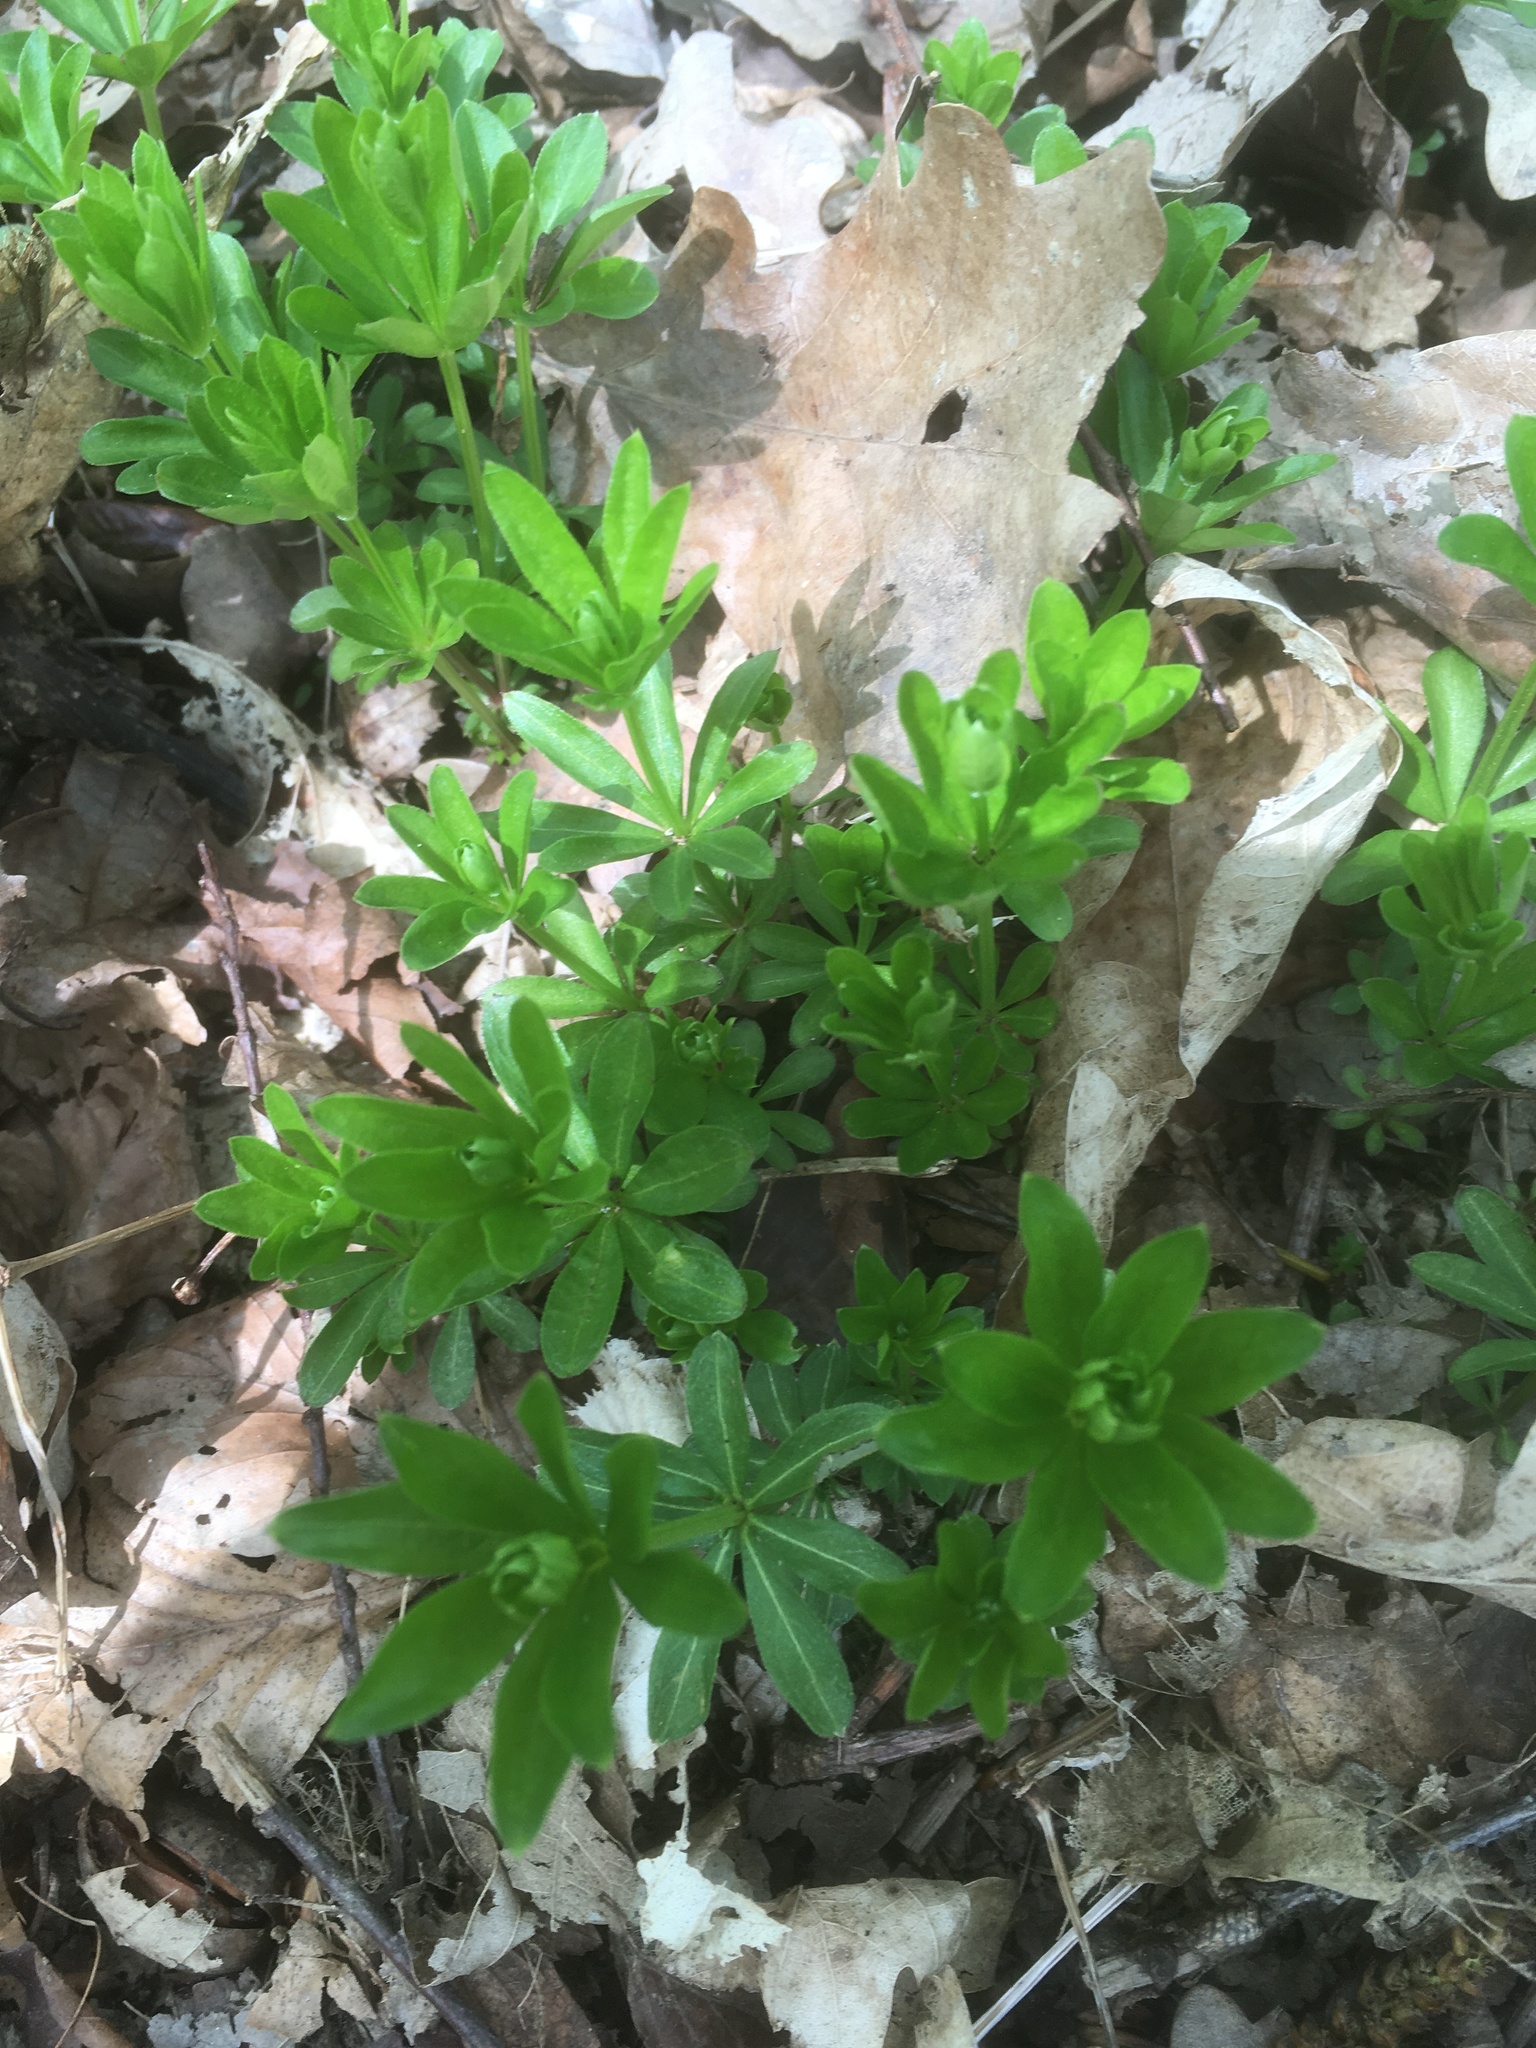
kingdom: Plantae
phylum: Tracheophyta
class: Magnoliopsida
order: Gentianales
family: Rubiaceae
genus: Galium
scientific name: Galium odoratum
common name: Sweet woodruff
